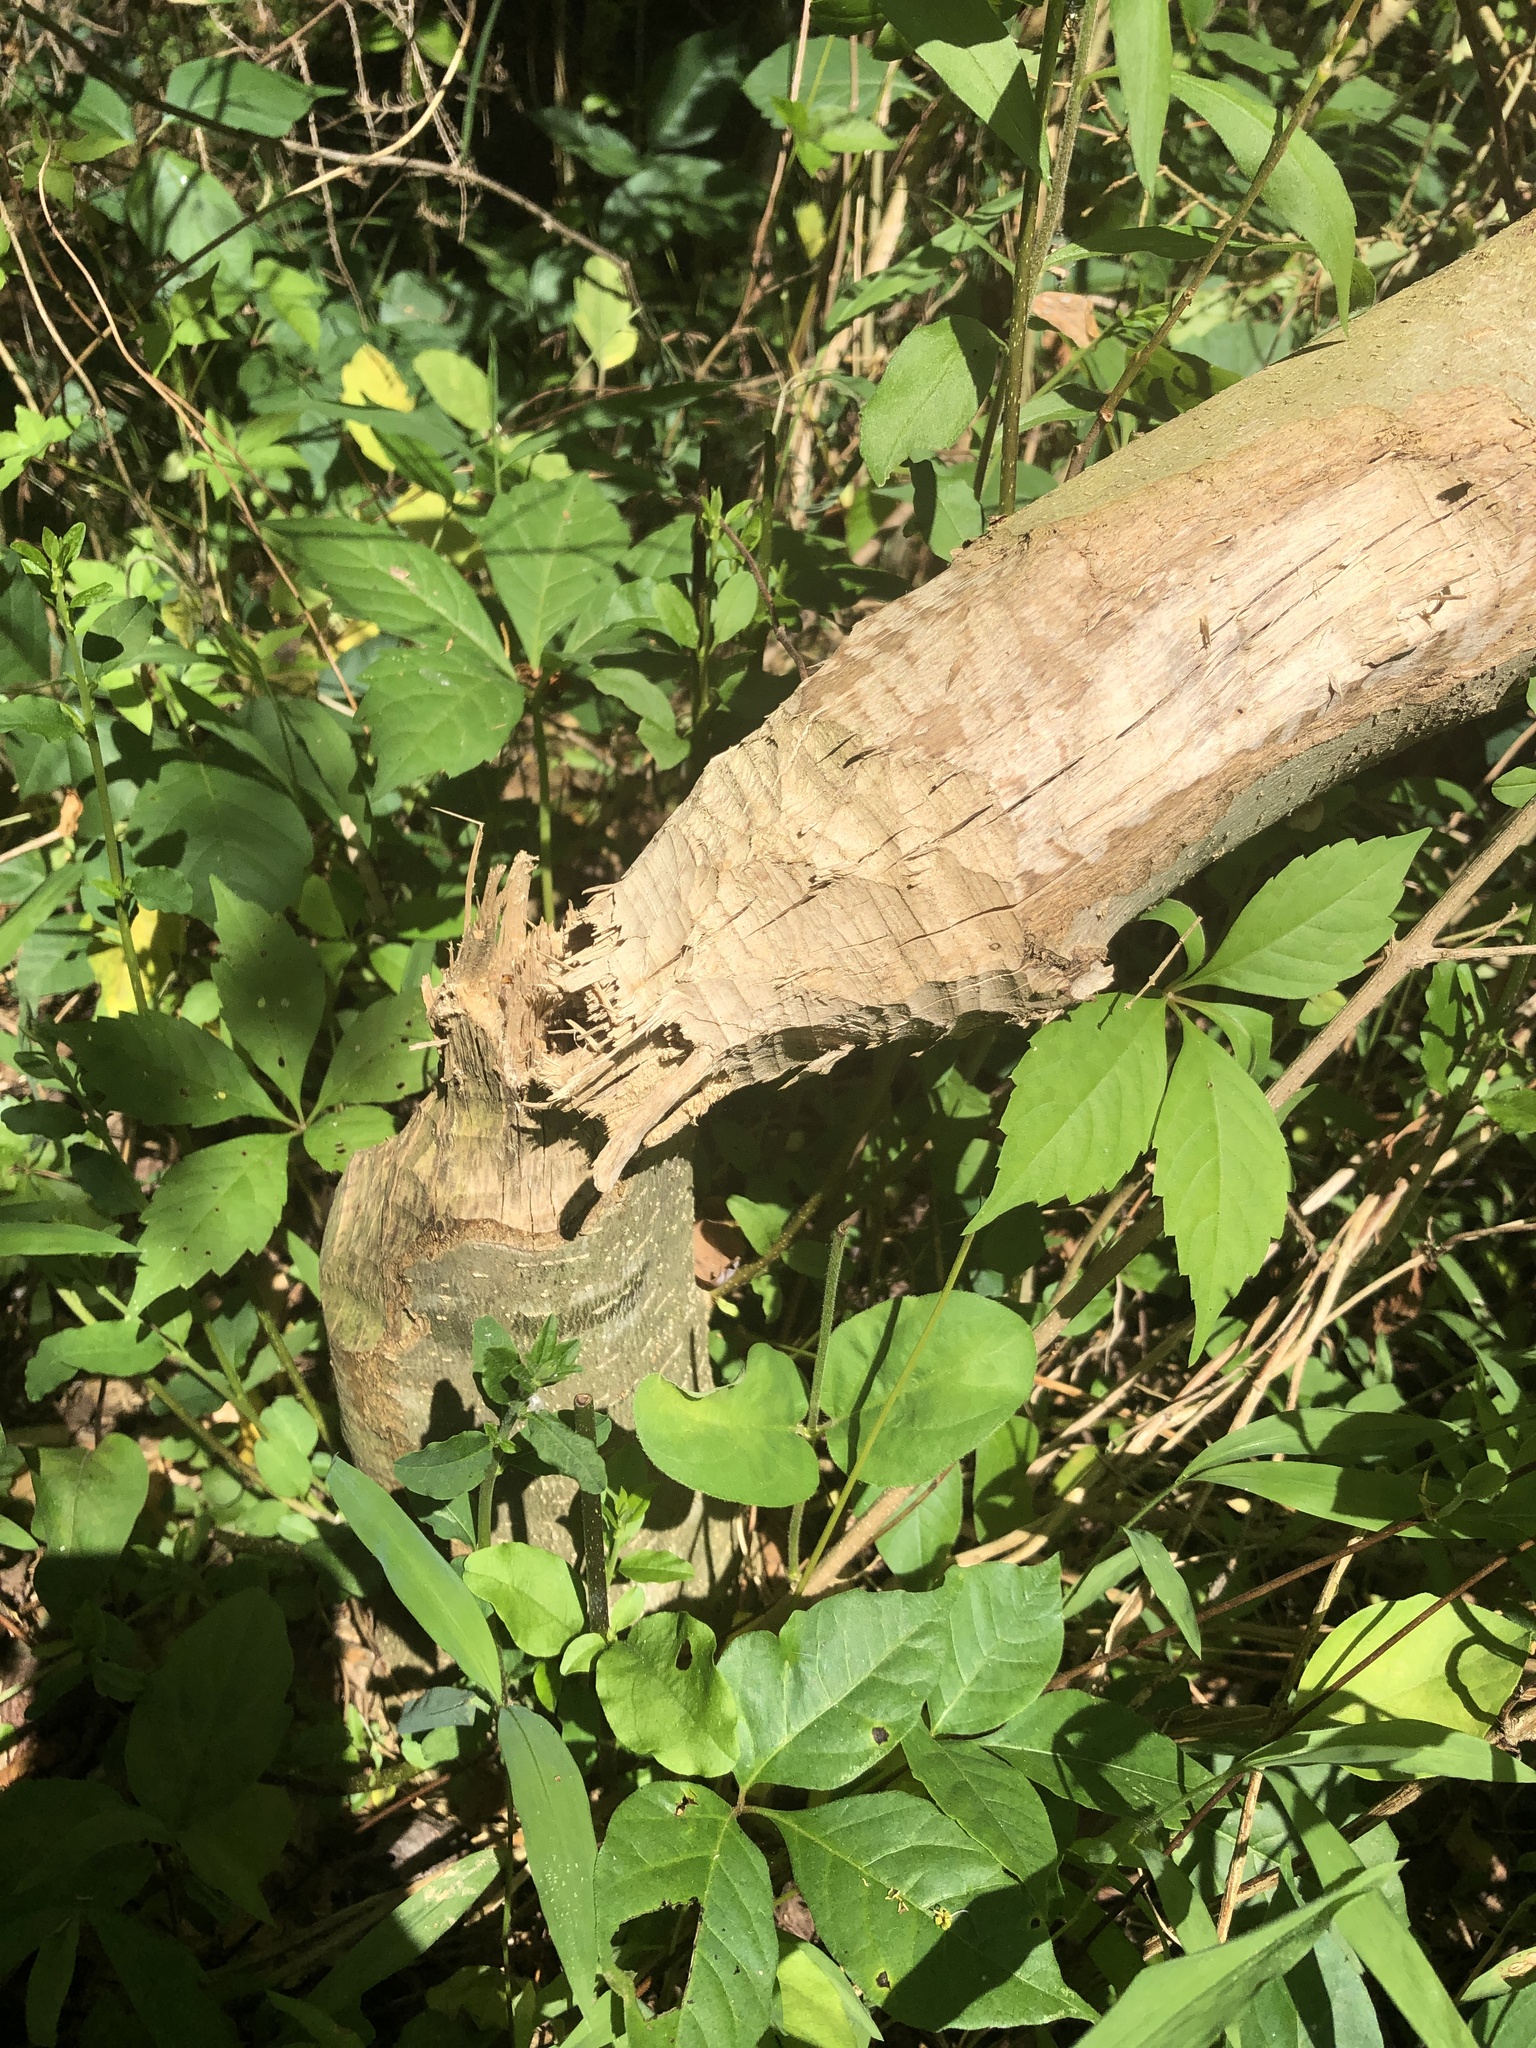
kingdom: Animalia
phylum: Chordata
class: Mammalia
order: Rodentia
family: Castoridae
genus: Castor
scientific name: Castor canadensis
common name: American beaver
